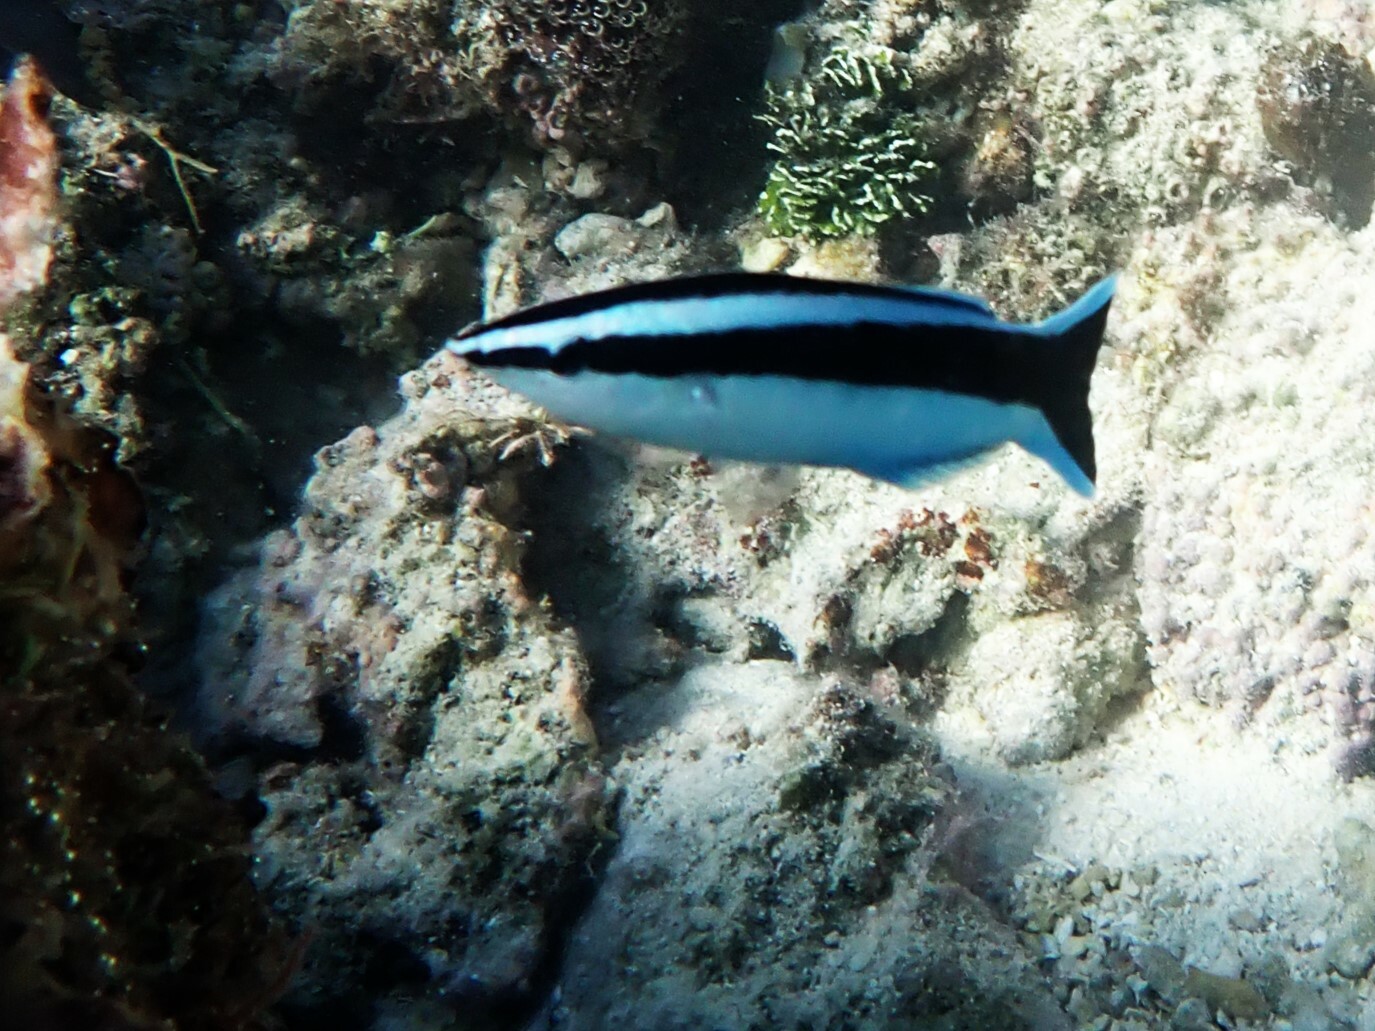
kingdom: Animalia
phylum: Chordata
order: Perciformes
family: Labridae
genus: Labroides
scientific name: Labroides dimidiatus
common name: Blue diesel wrasse
